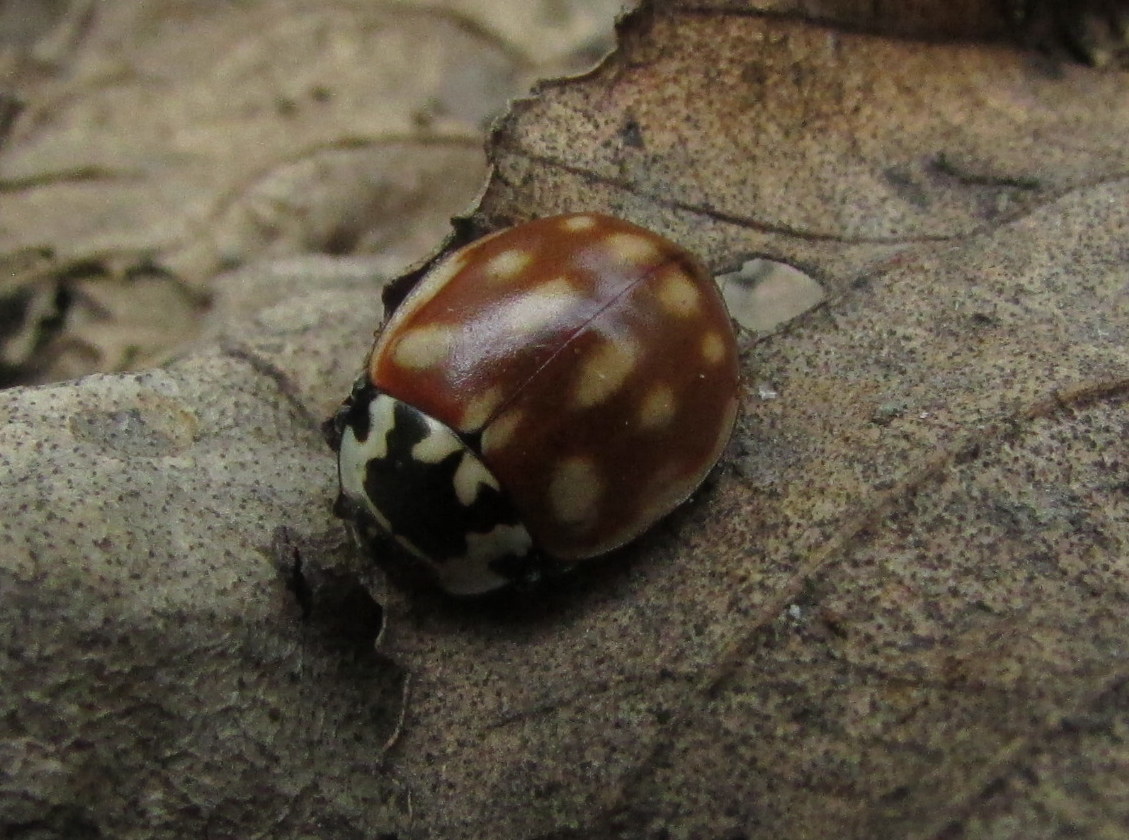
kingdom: Animalia
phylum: Arthropoda
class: Insecta
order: Coleoptera
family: Coccinellidae
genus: Anatis
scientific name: Anatis ocellata
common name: Eyed ladybird
